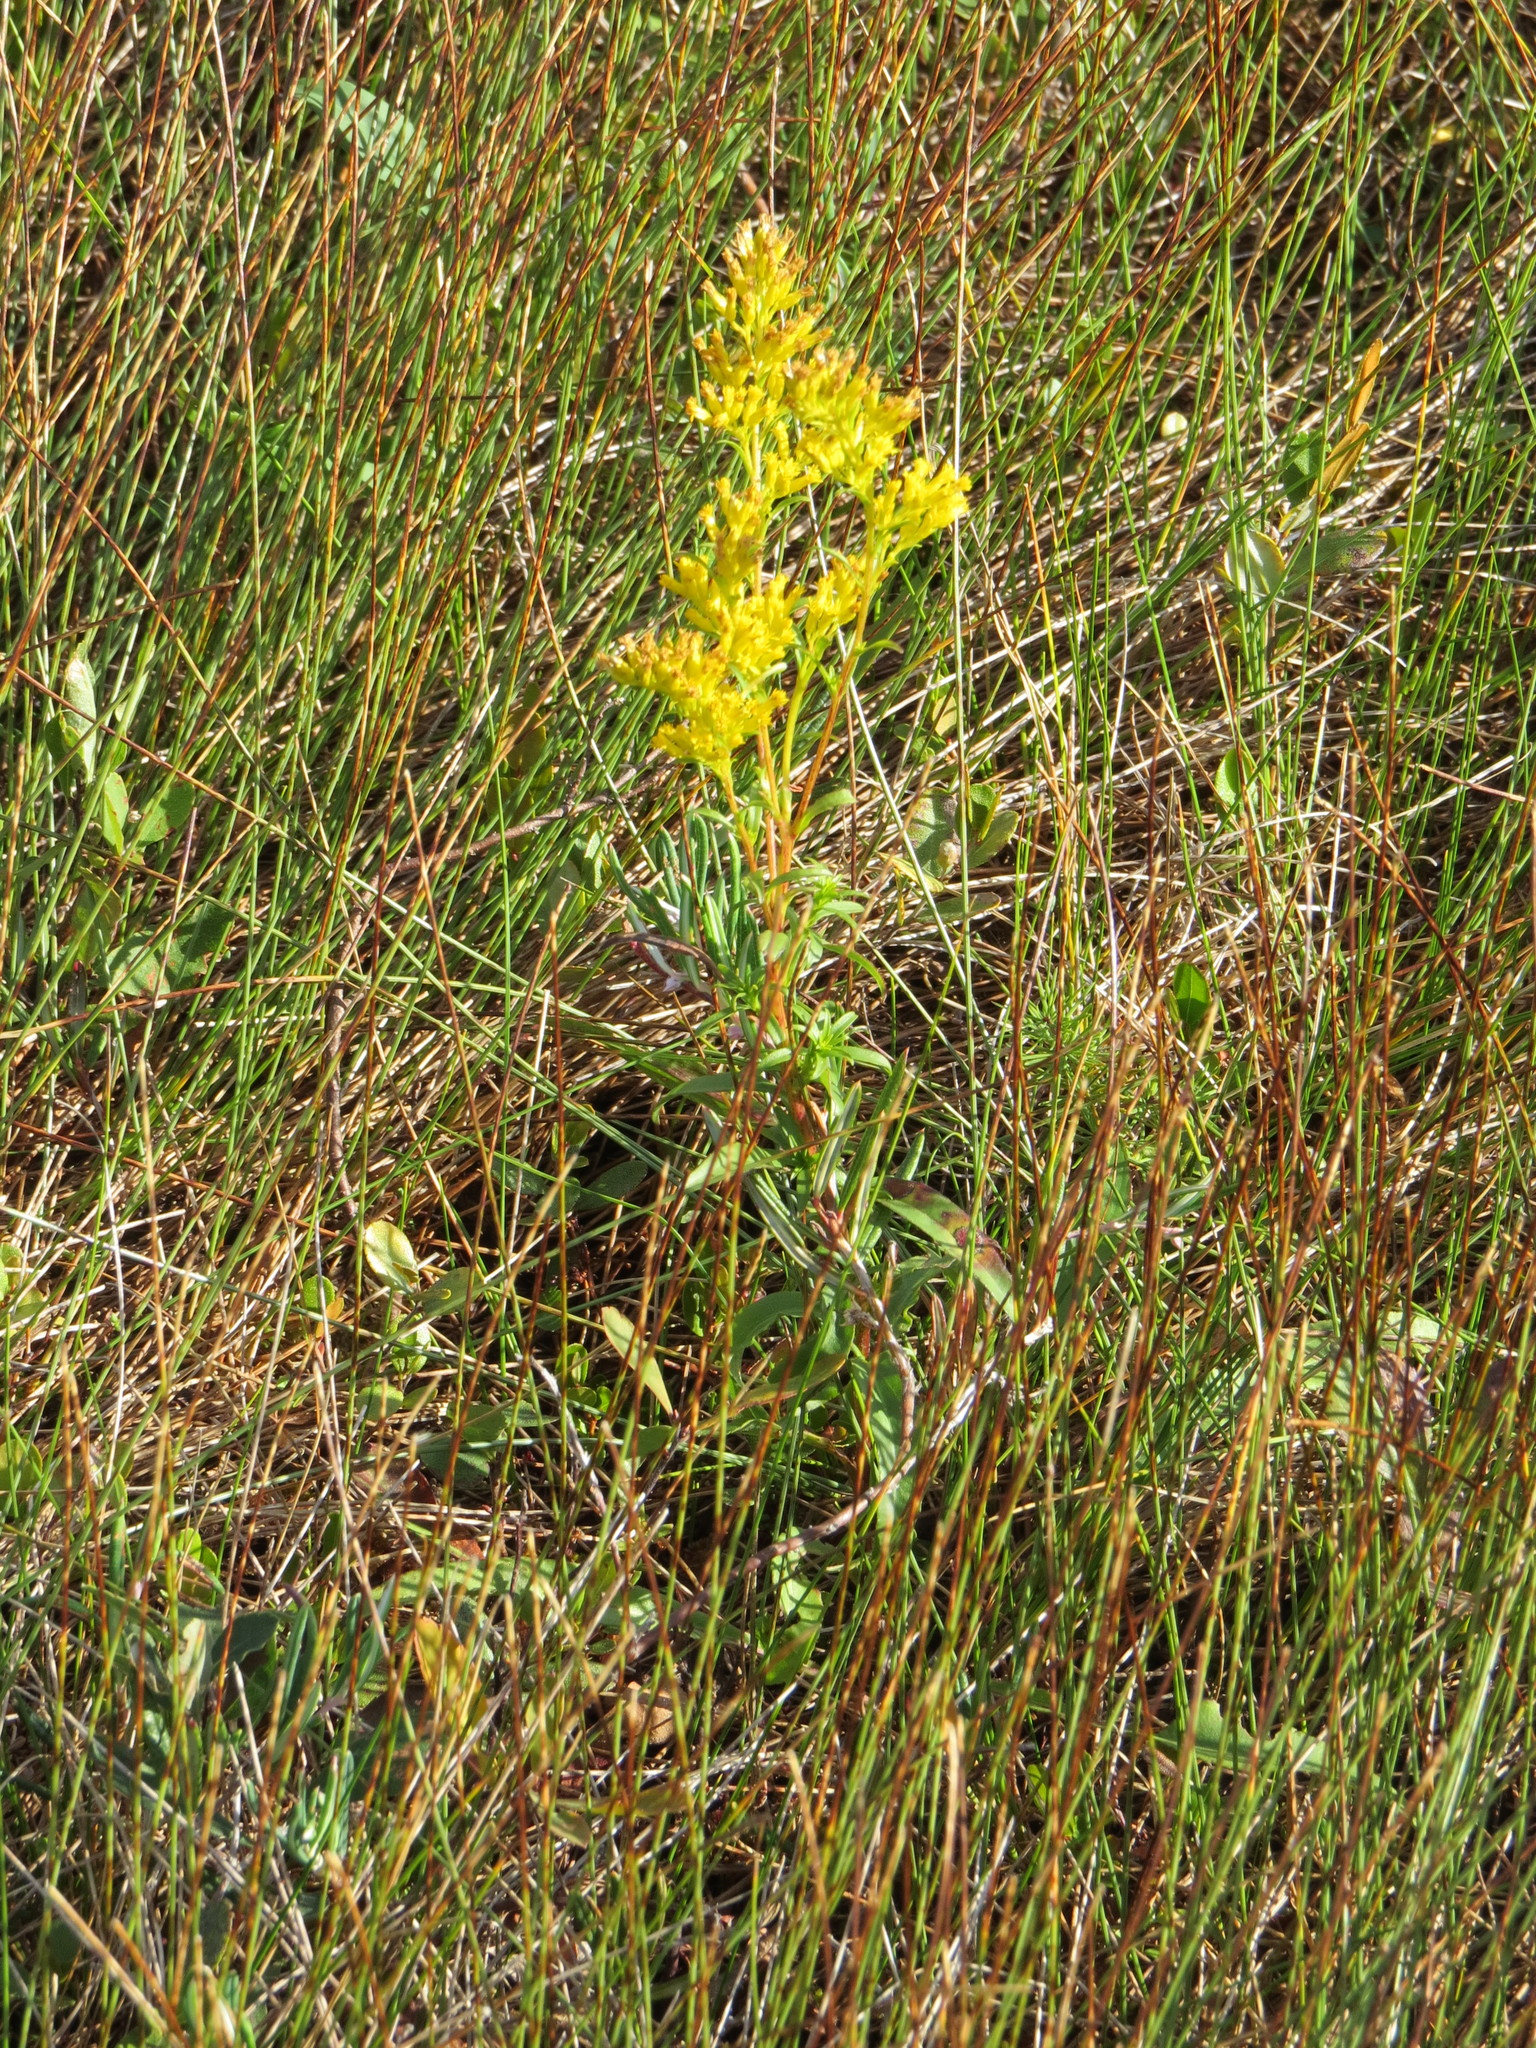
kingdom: Plantae
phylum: Tracheophyta
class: Magnoliopsida
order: Asterales
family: Asteraceae
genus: Solidago
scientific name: Solidago uliginosa
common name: Bog goldenrod
